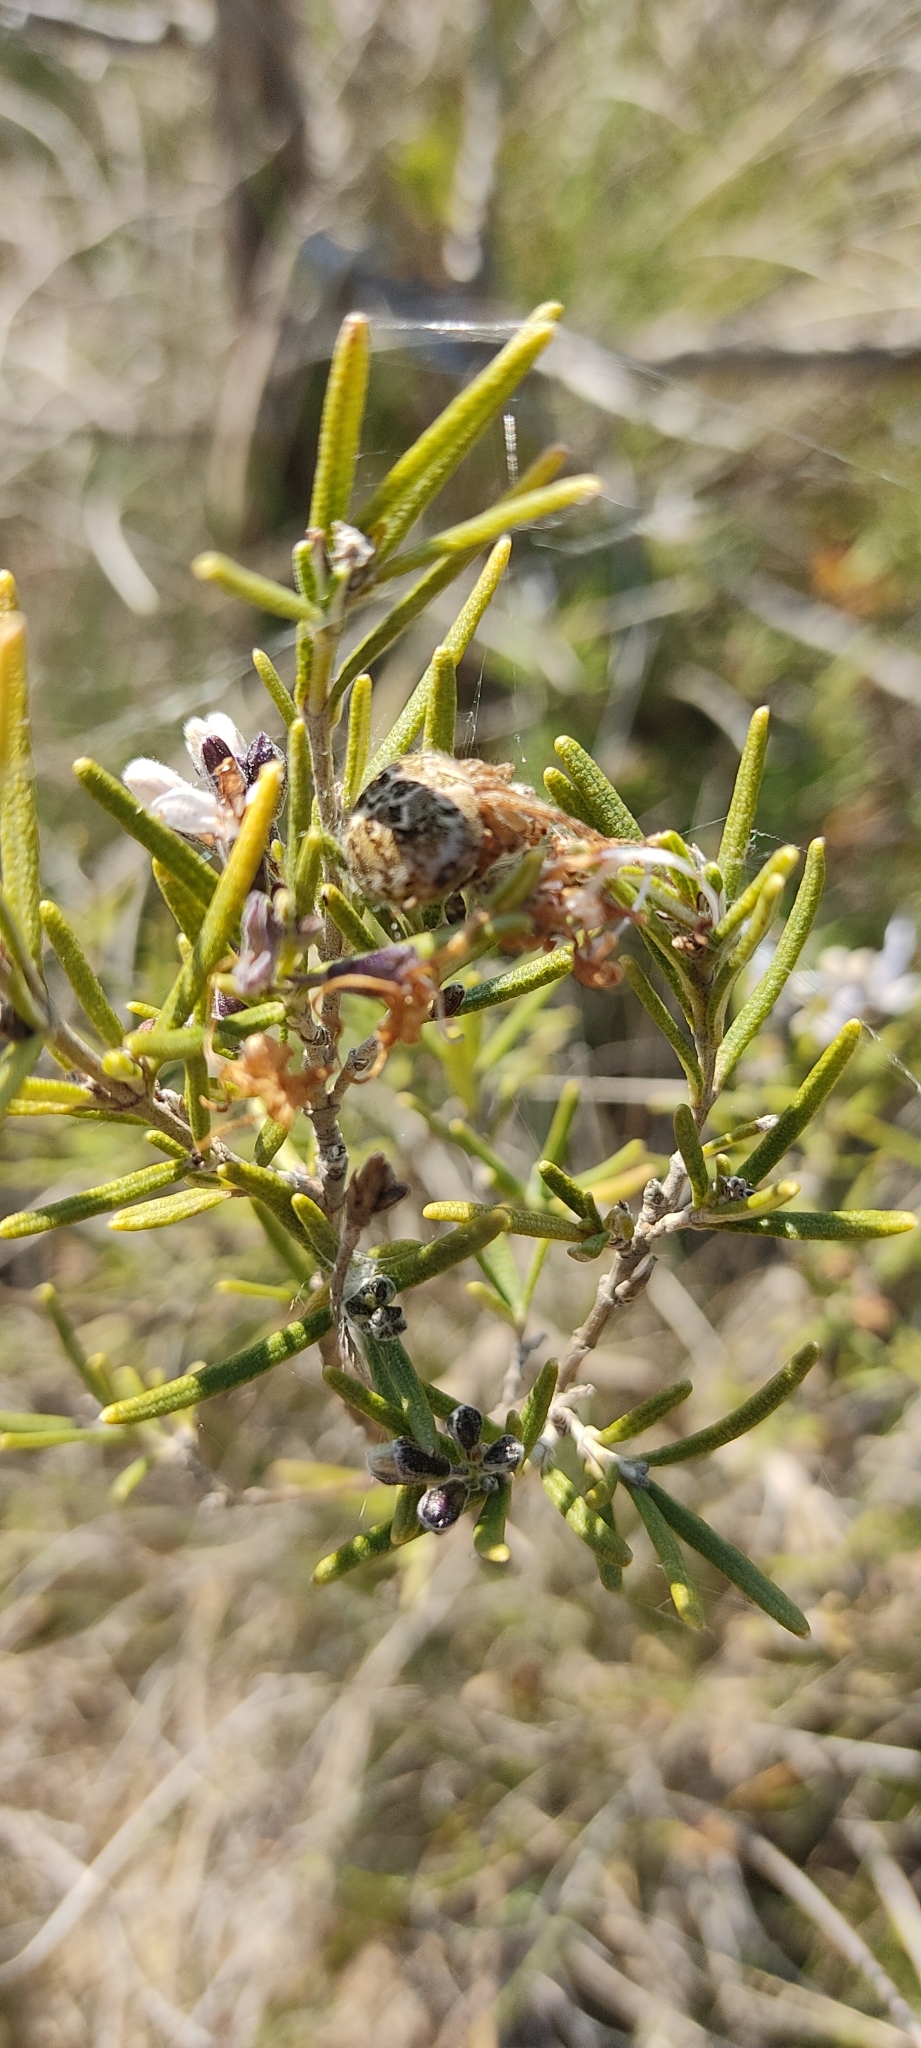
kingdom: Animalia
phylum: Arthropoda
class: Arachnida
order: Araneae
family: Araneidae
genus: Agalenatea
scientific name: Agalenatea redii
